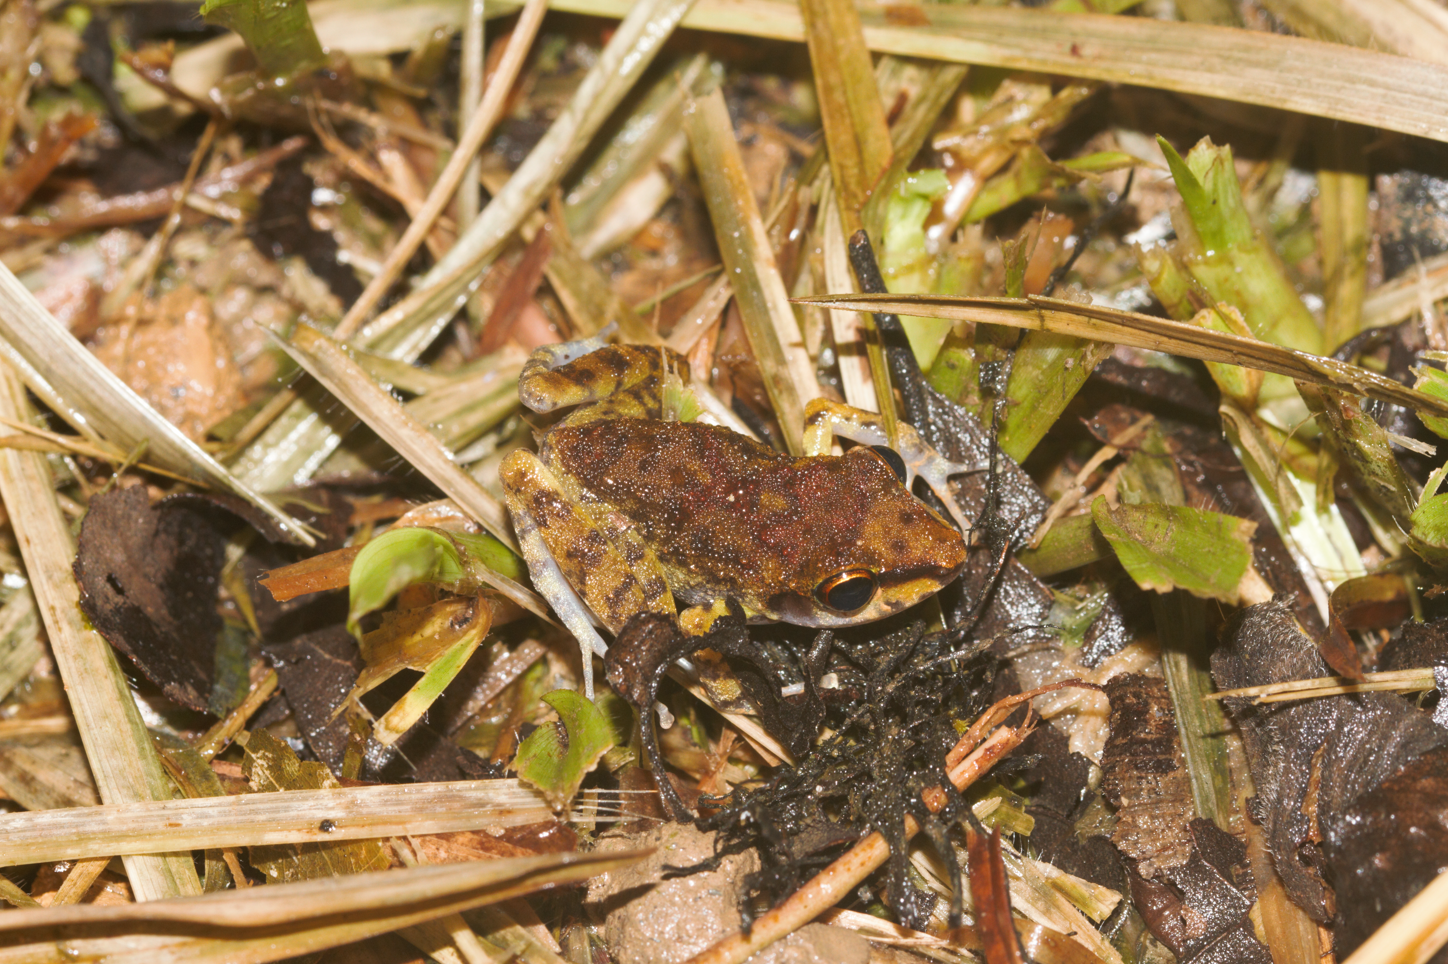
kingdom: Animalia
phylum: Chordata
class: Amphibia
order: Anura
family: Craugastoridae
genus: Pristimantis
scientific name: Pristimantis zeuctotylus
